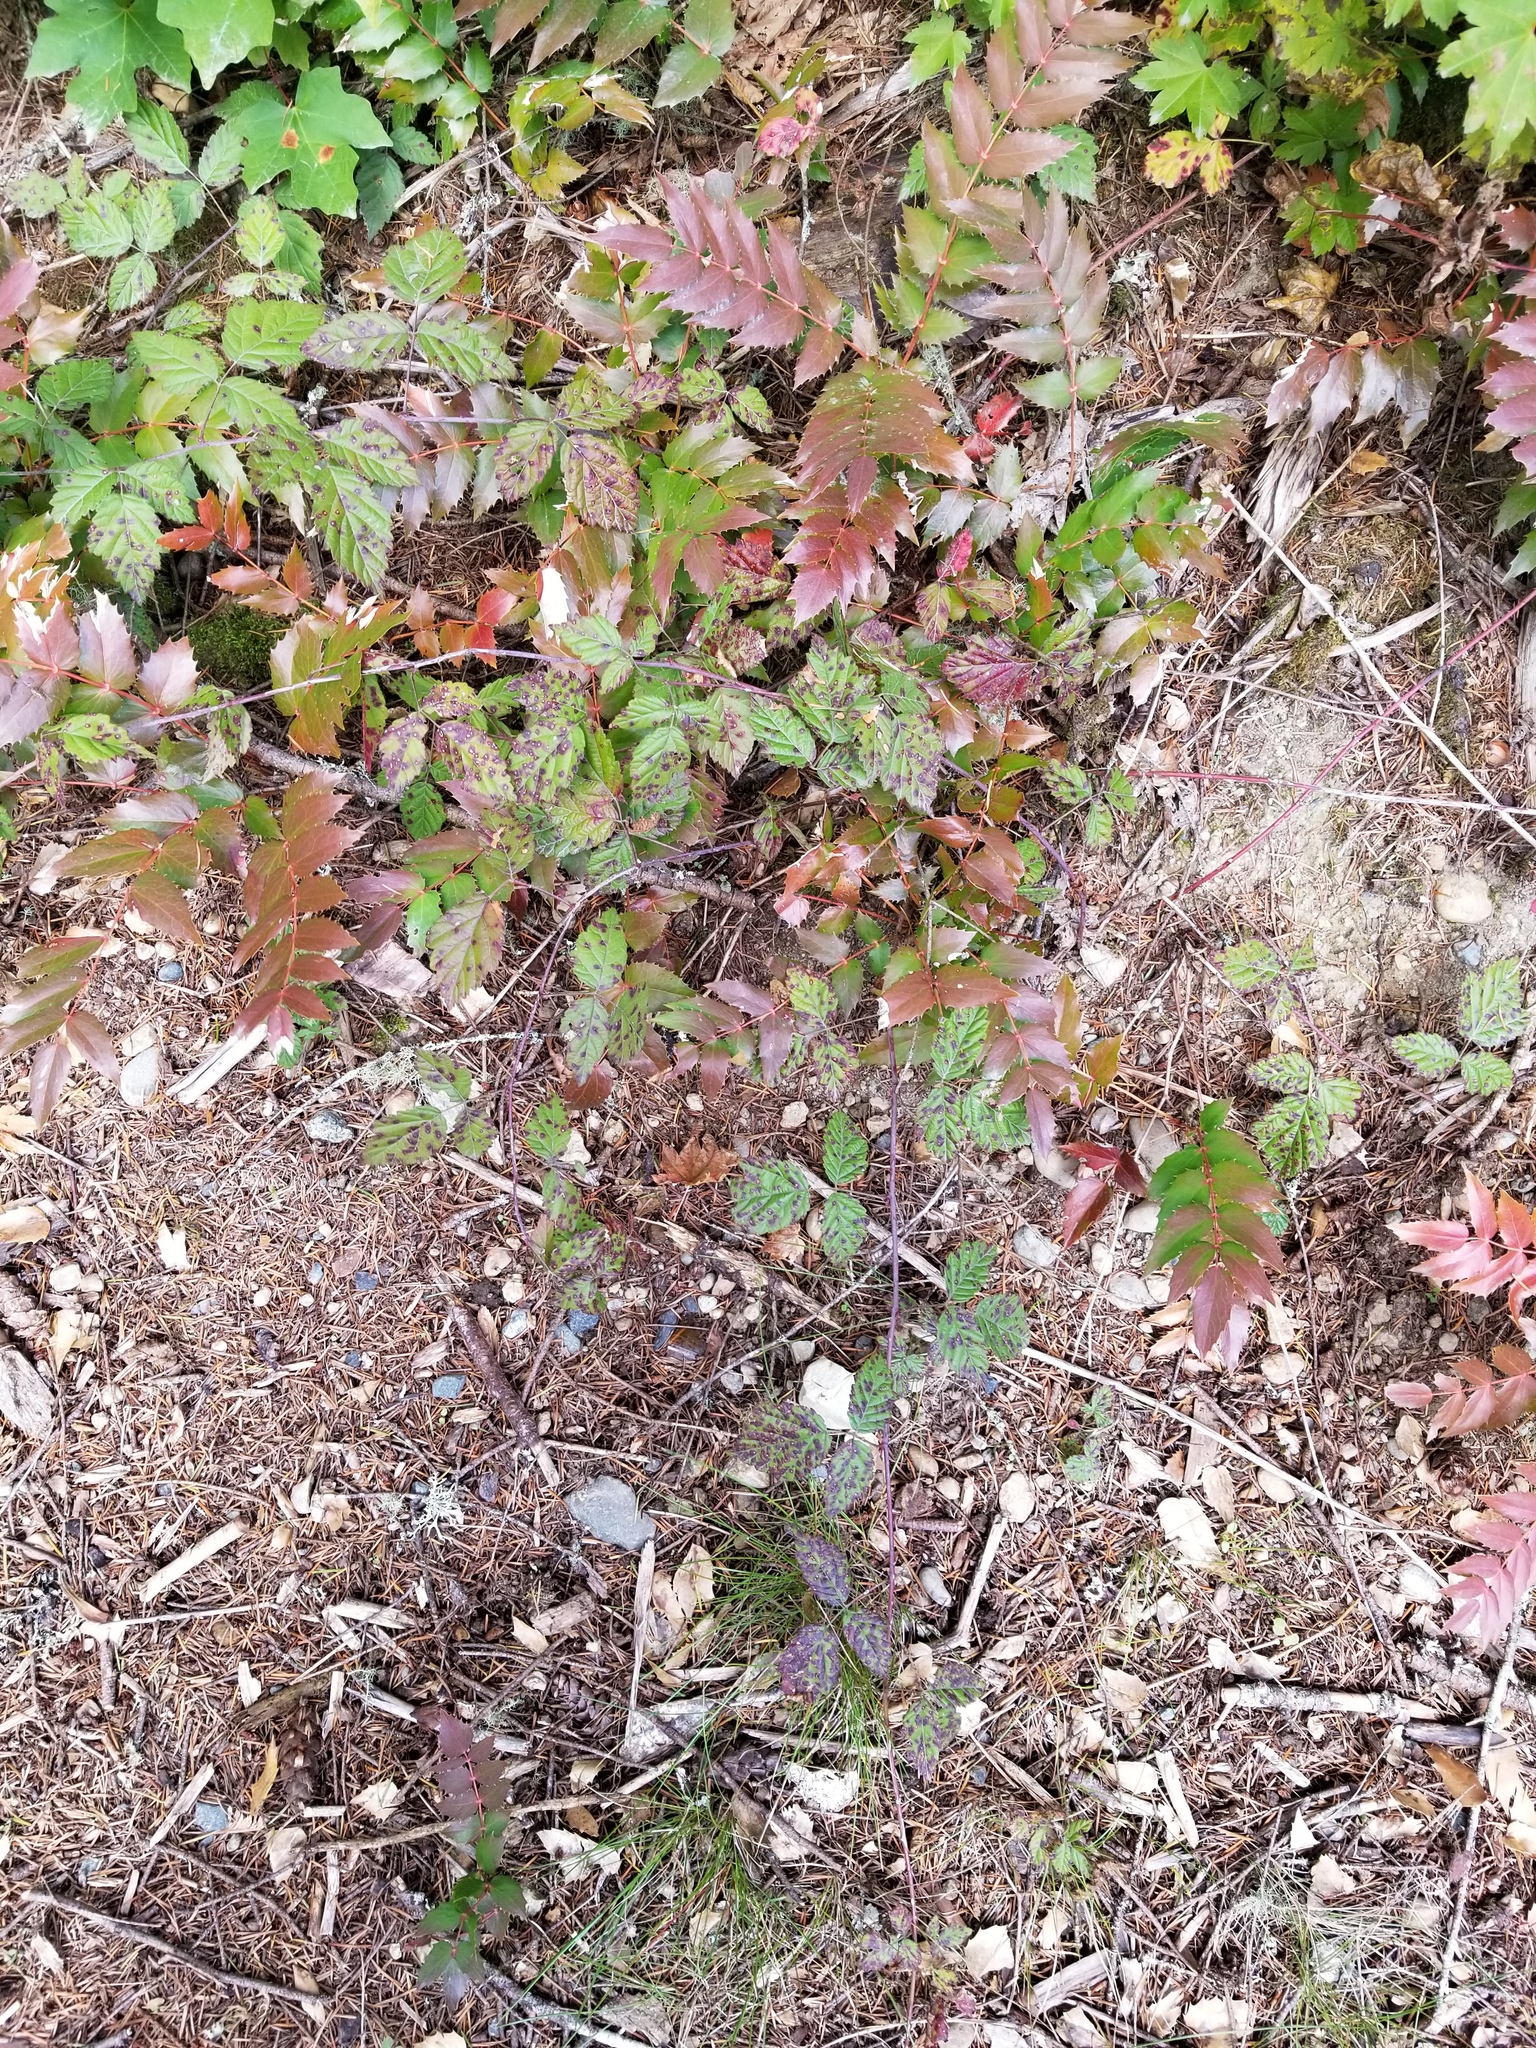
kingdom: Plantae
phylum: Tracheophyta
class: Magnoliopsida
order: Ranunculales
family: Berberidaceae
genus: Mahonia
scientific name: Mahonia nervosa
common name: Cascade oregon-grape
